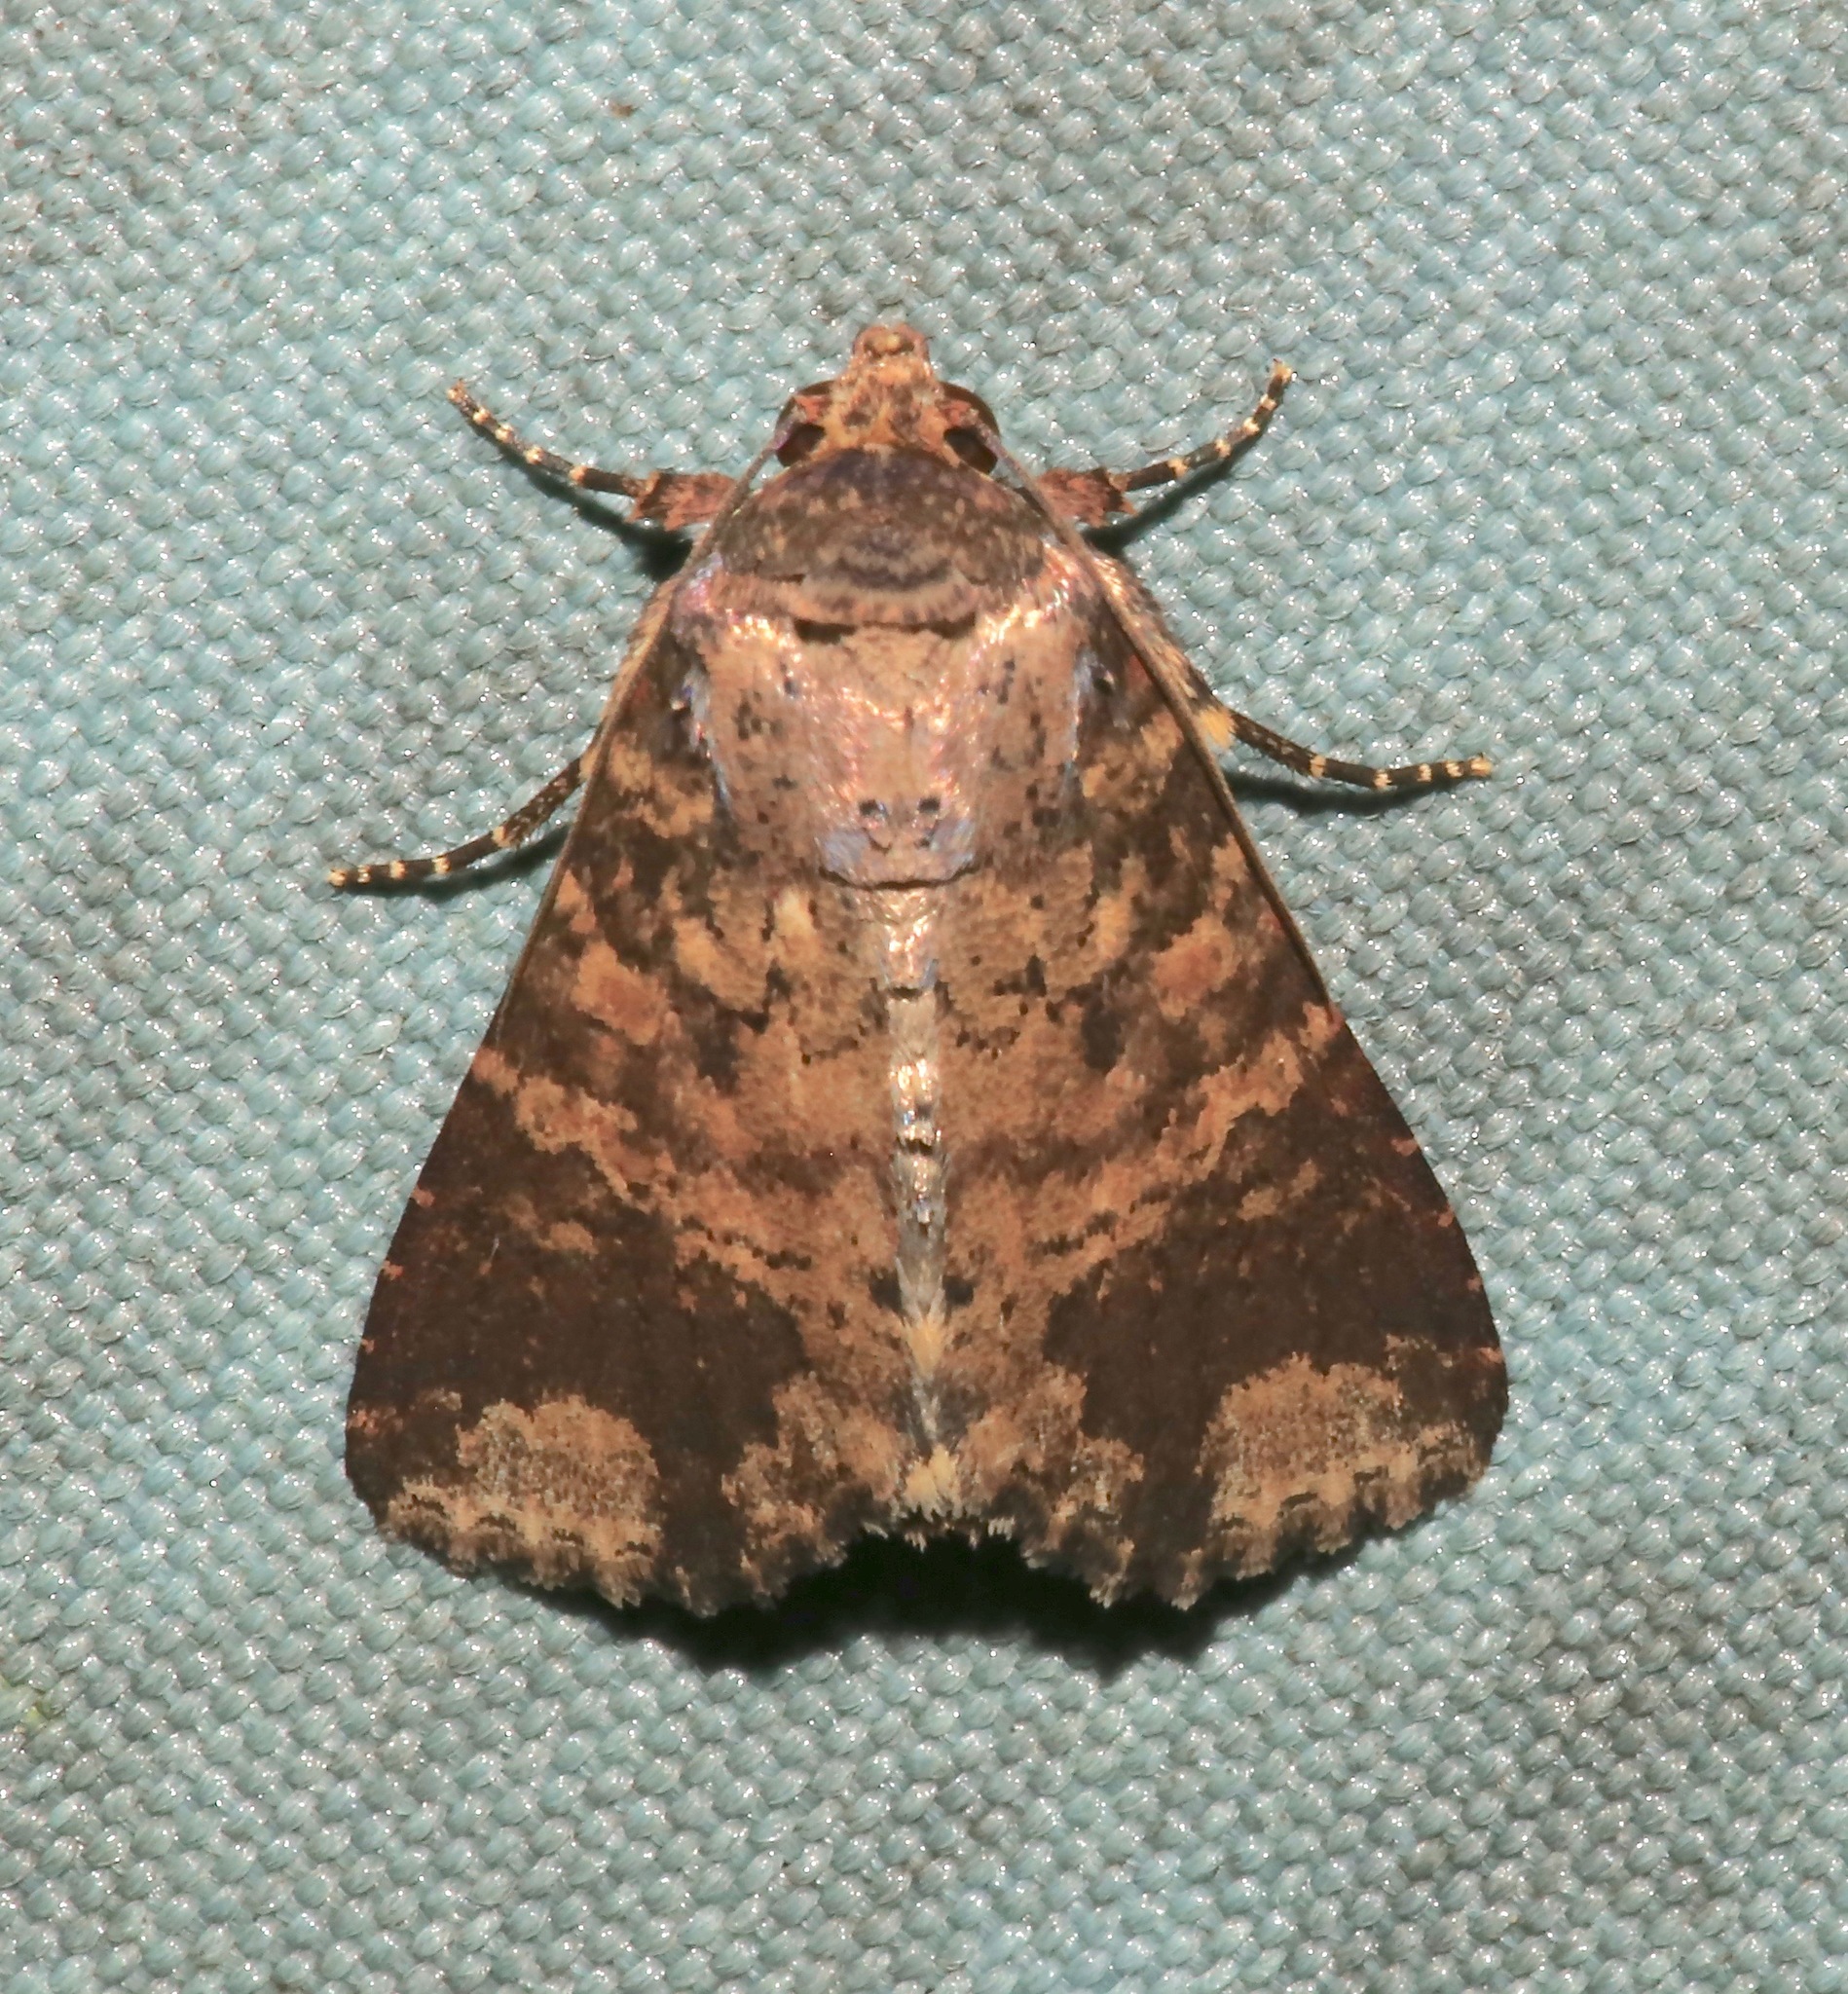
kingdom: Animalia
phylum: Arthropoda
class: Insecta
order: Lepidoptera
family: Noctuidae
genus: Condica
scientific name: Condica cupentia
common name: Splotched groundling
